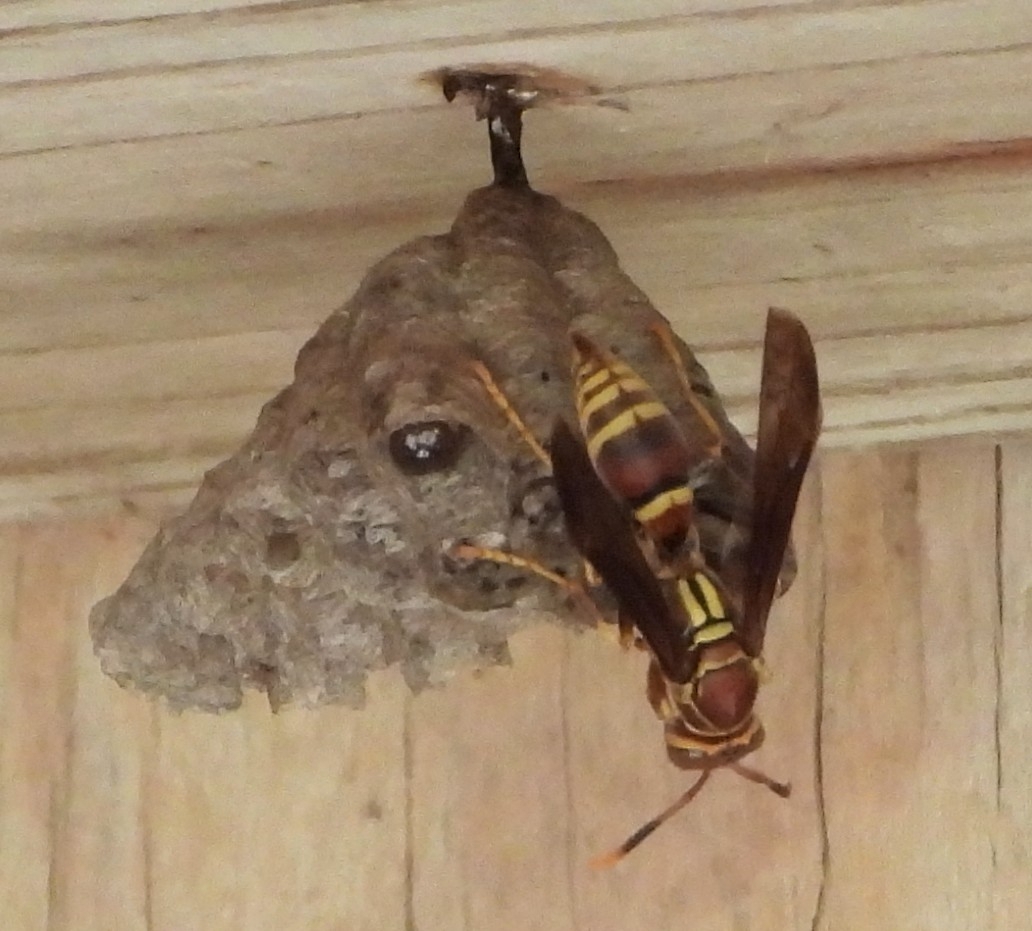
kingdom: Animalia
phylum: Arthropoda
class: Insecta
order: Hymenoptera
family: Eumenidae
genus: Polistes
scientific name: Polistes exclamans
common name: Paper wasp
